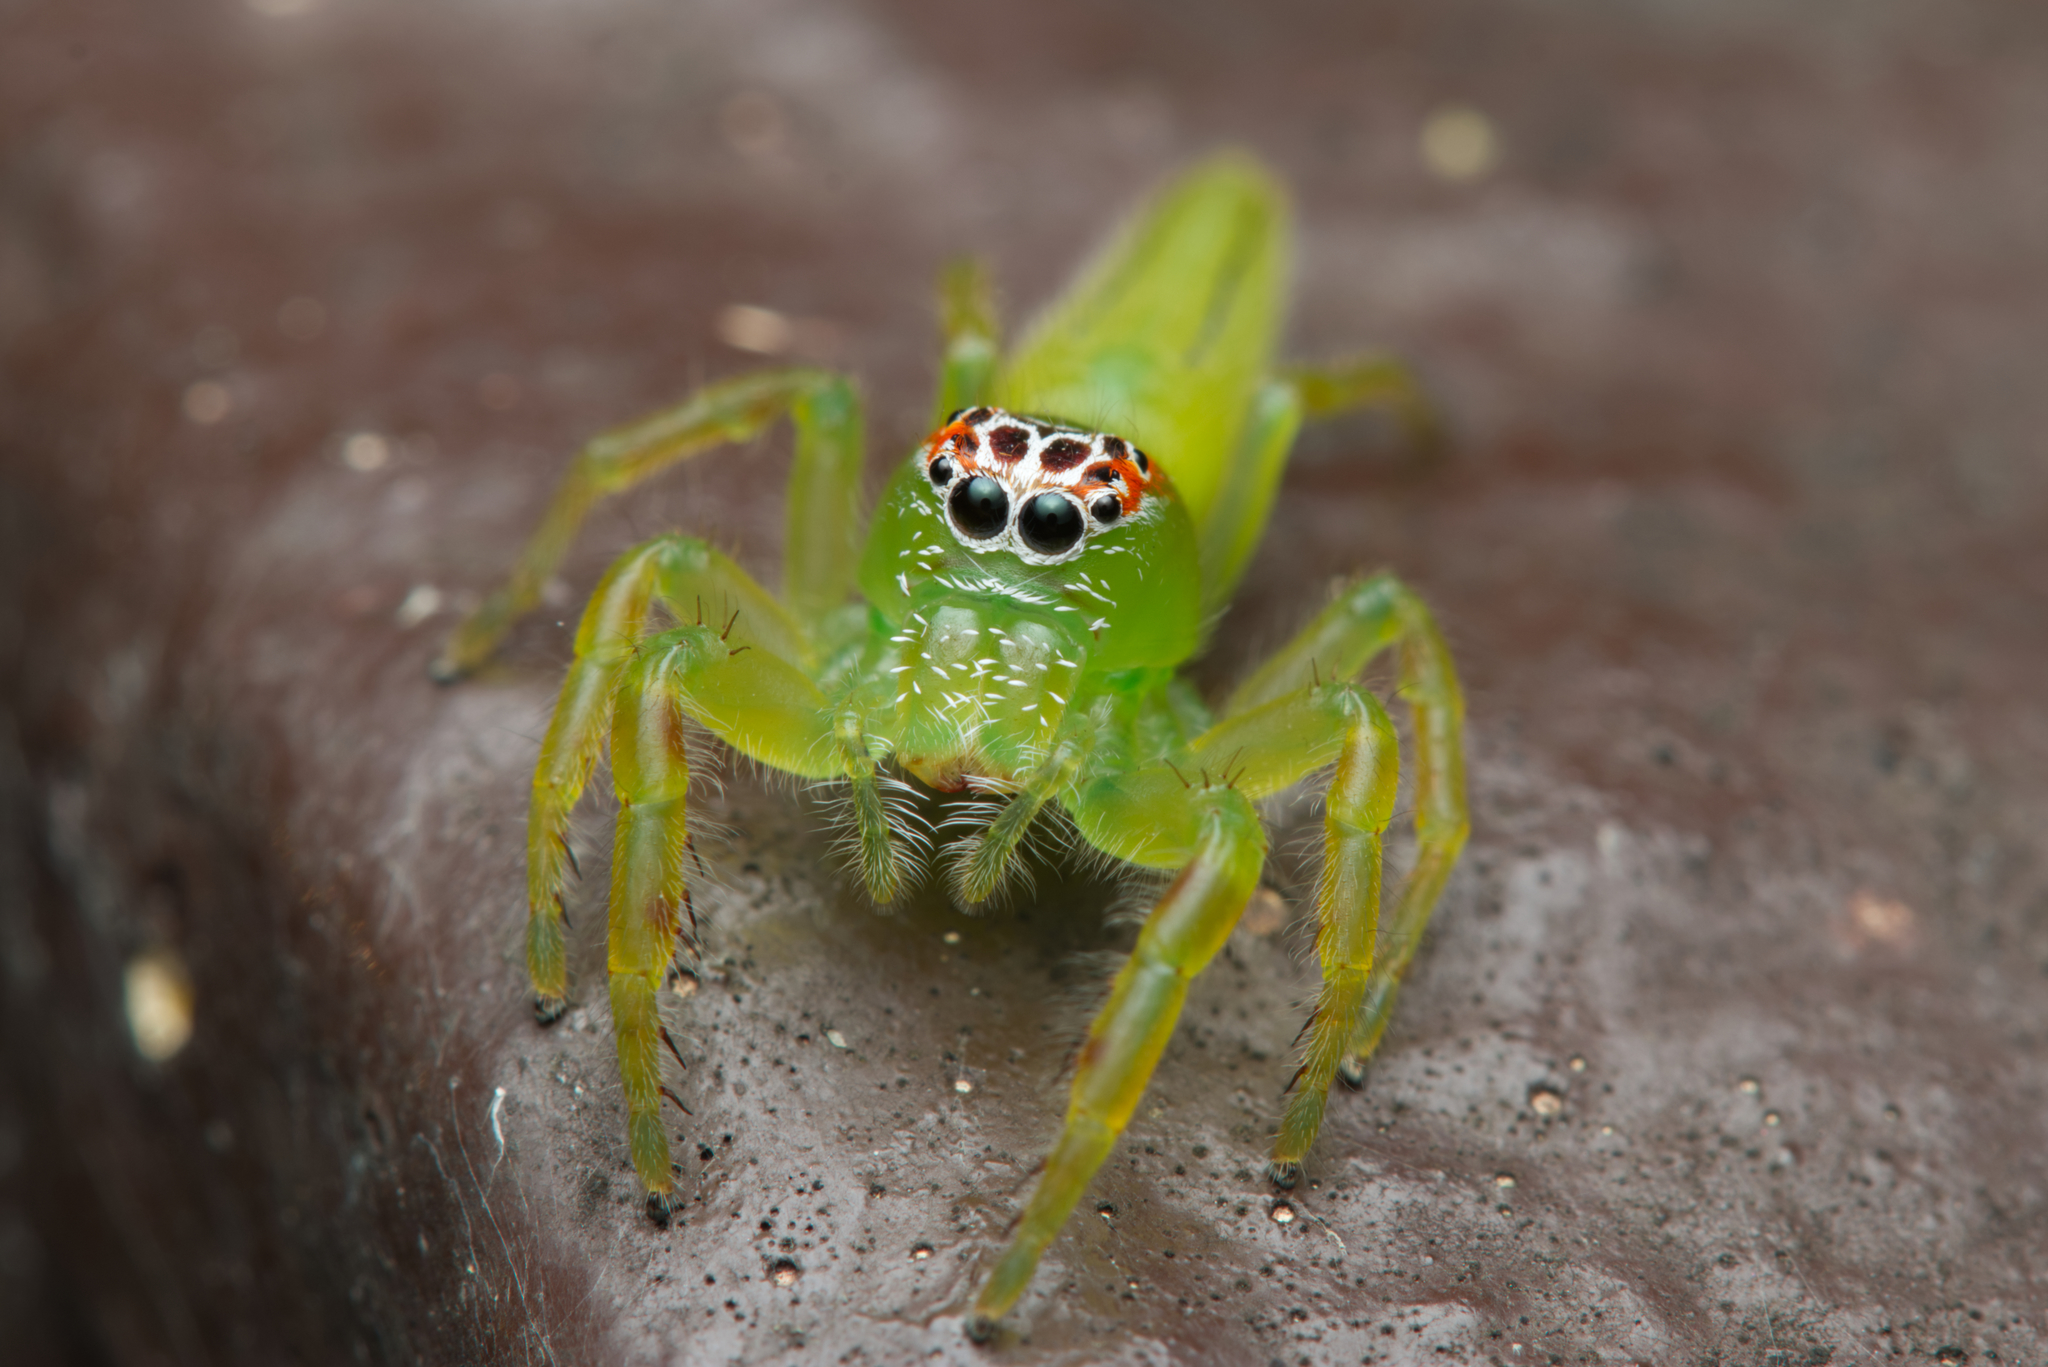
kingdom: Animalia
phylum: Arthropoda
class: Arachnida
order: Araneae
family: Salticidae
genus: Mopsus
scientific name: Mopsus mormon
